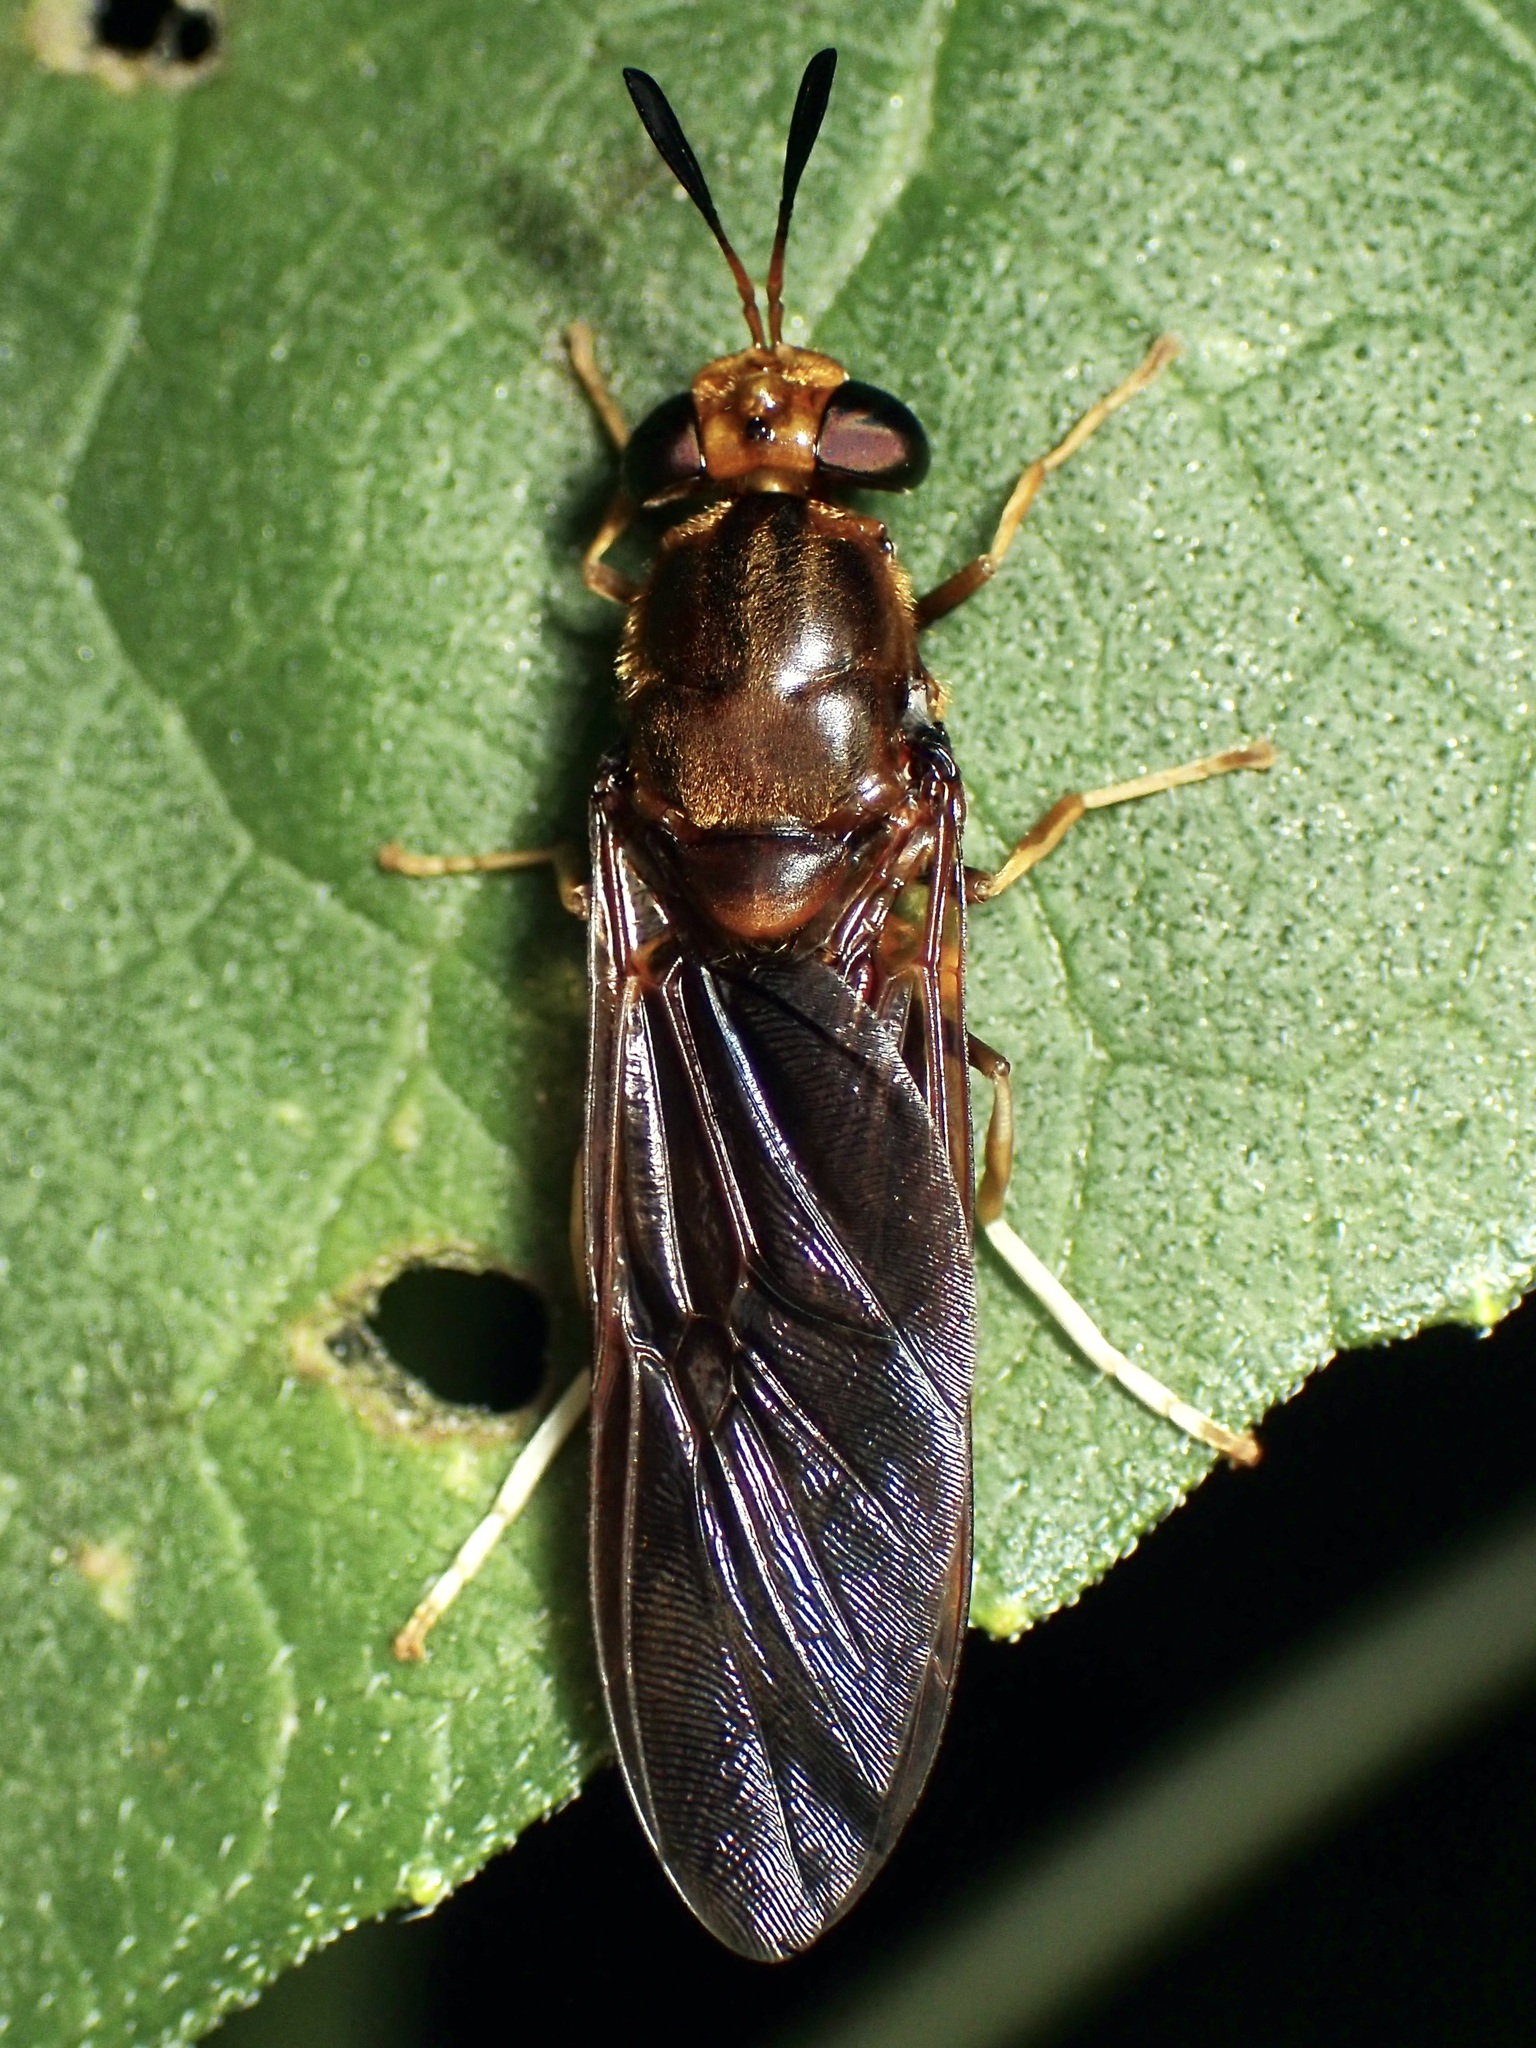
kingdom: Animalia
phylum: Arthropoda
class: Insecta
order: Diptera
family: Stratiomyidae
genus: Hermetia
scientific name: Hermetia concinna
